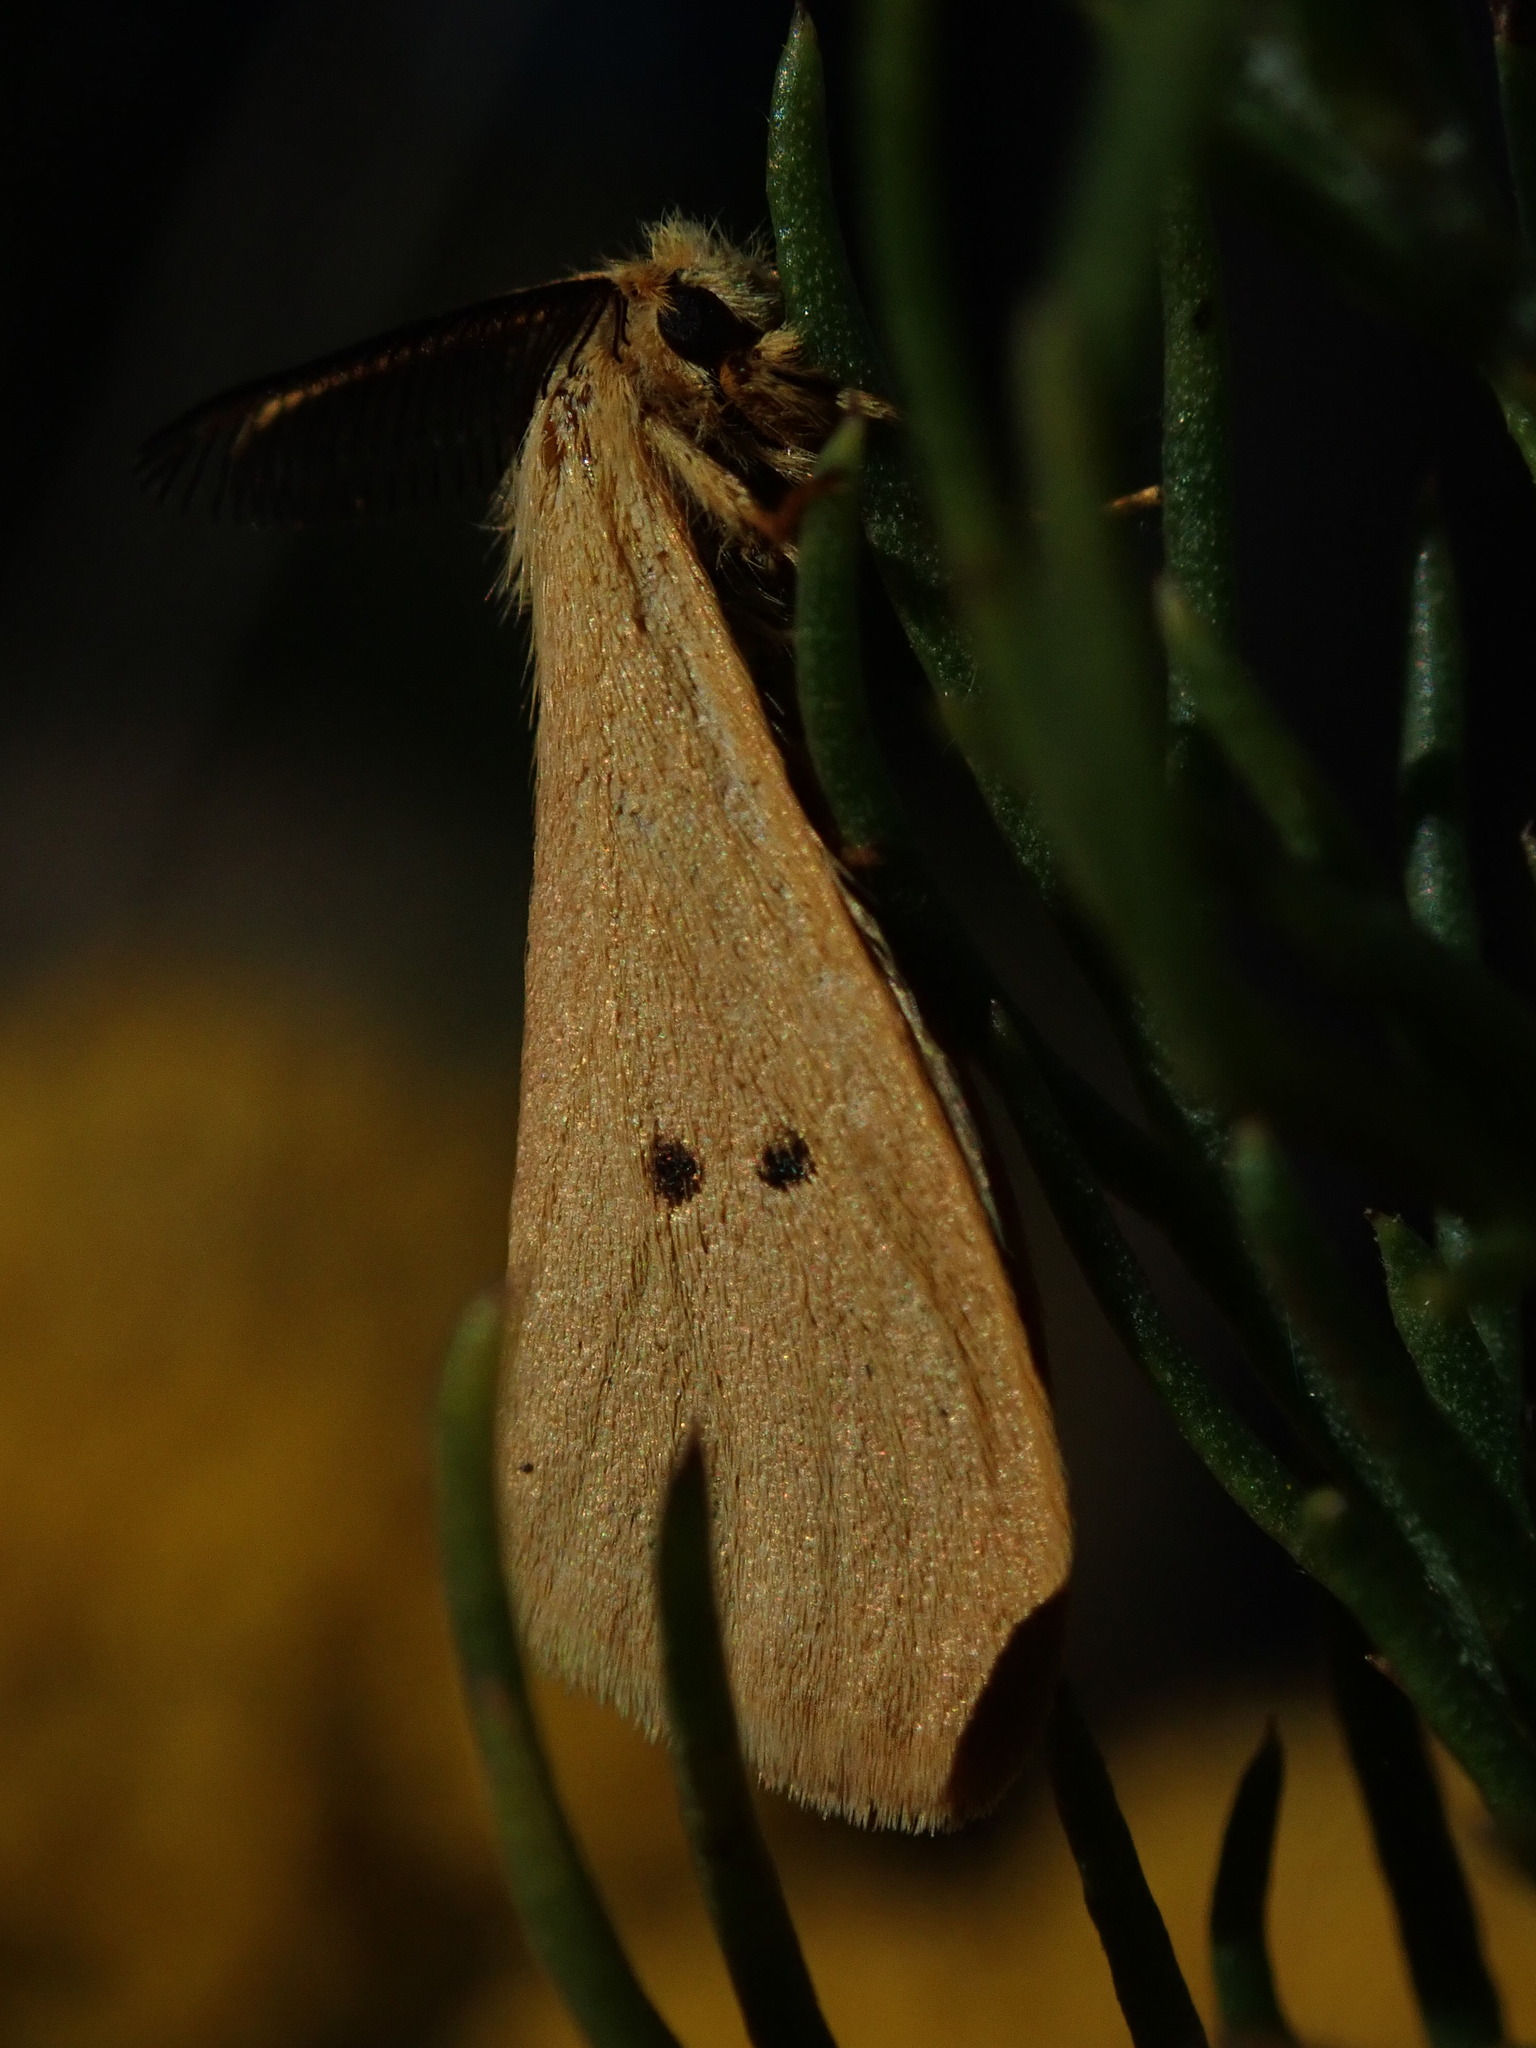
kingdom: Animalia
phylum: Arthropoda
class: Insecta
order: Lepidoptera
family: Erebidae
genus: Bracharoa
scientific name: Bracharoa quadripunctata
